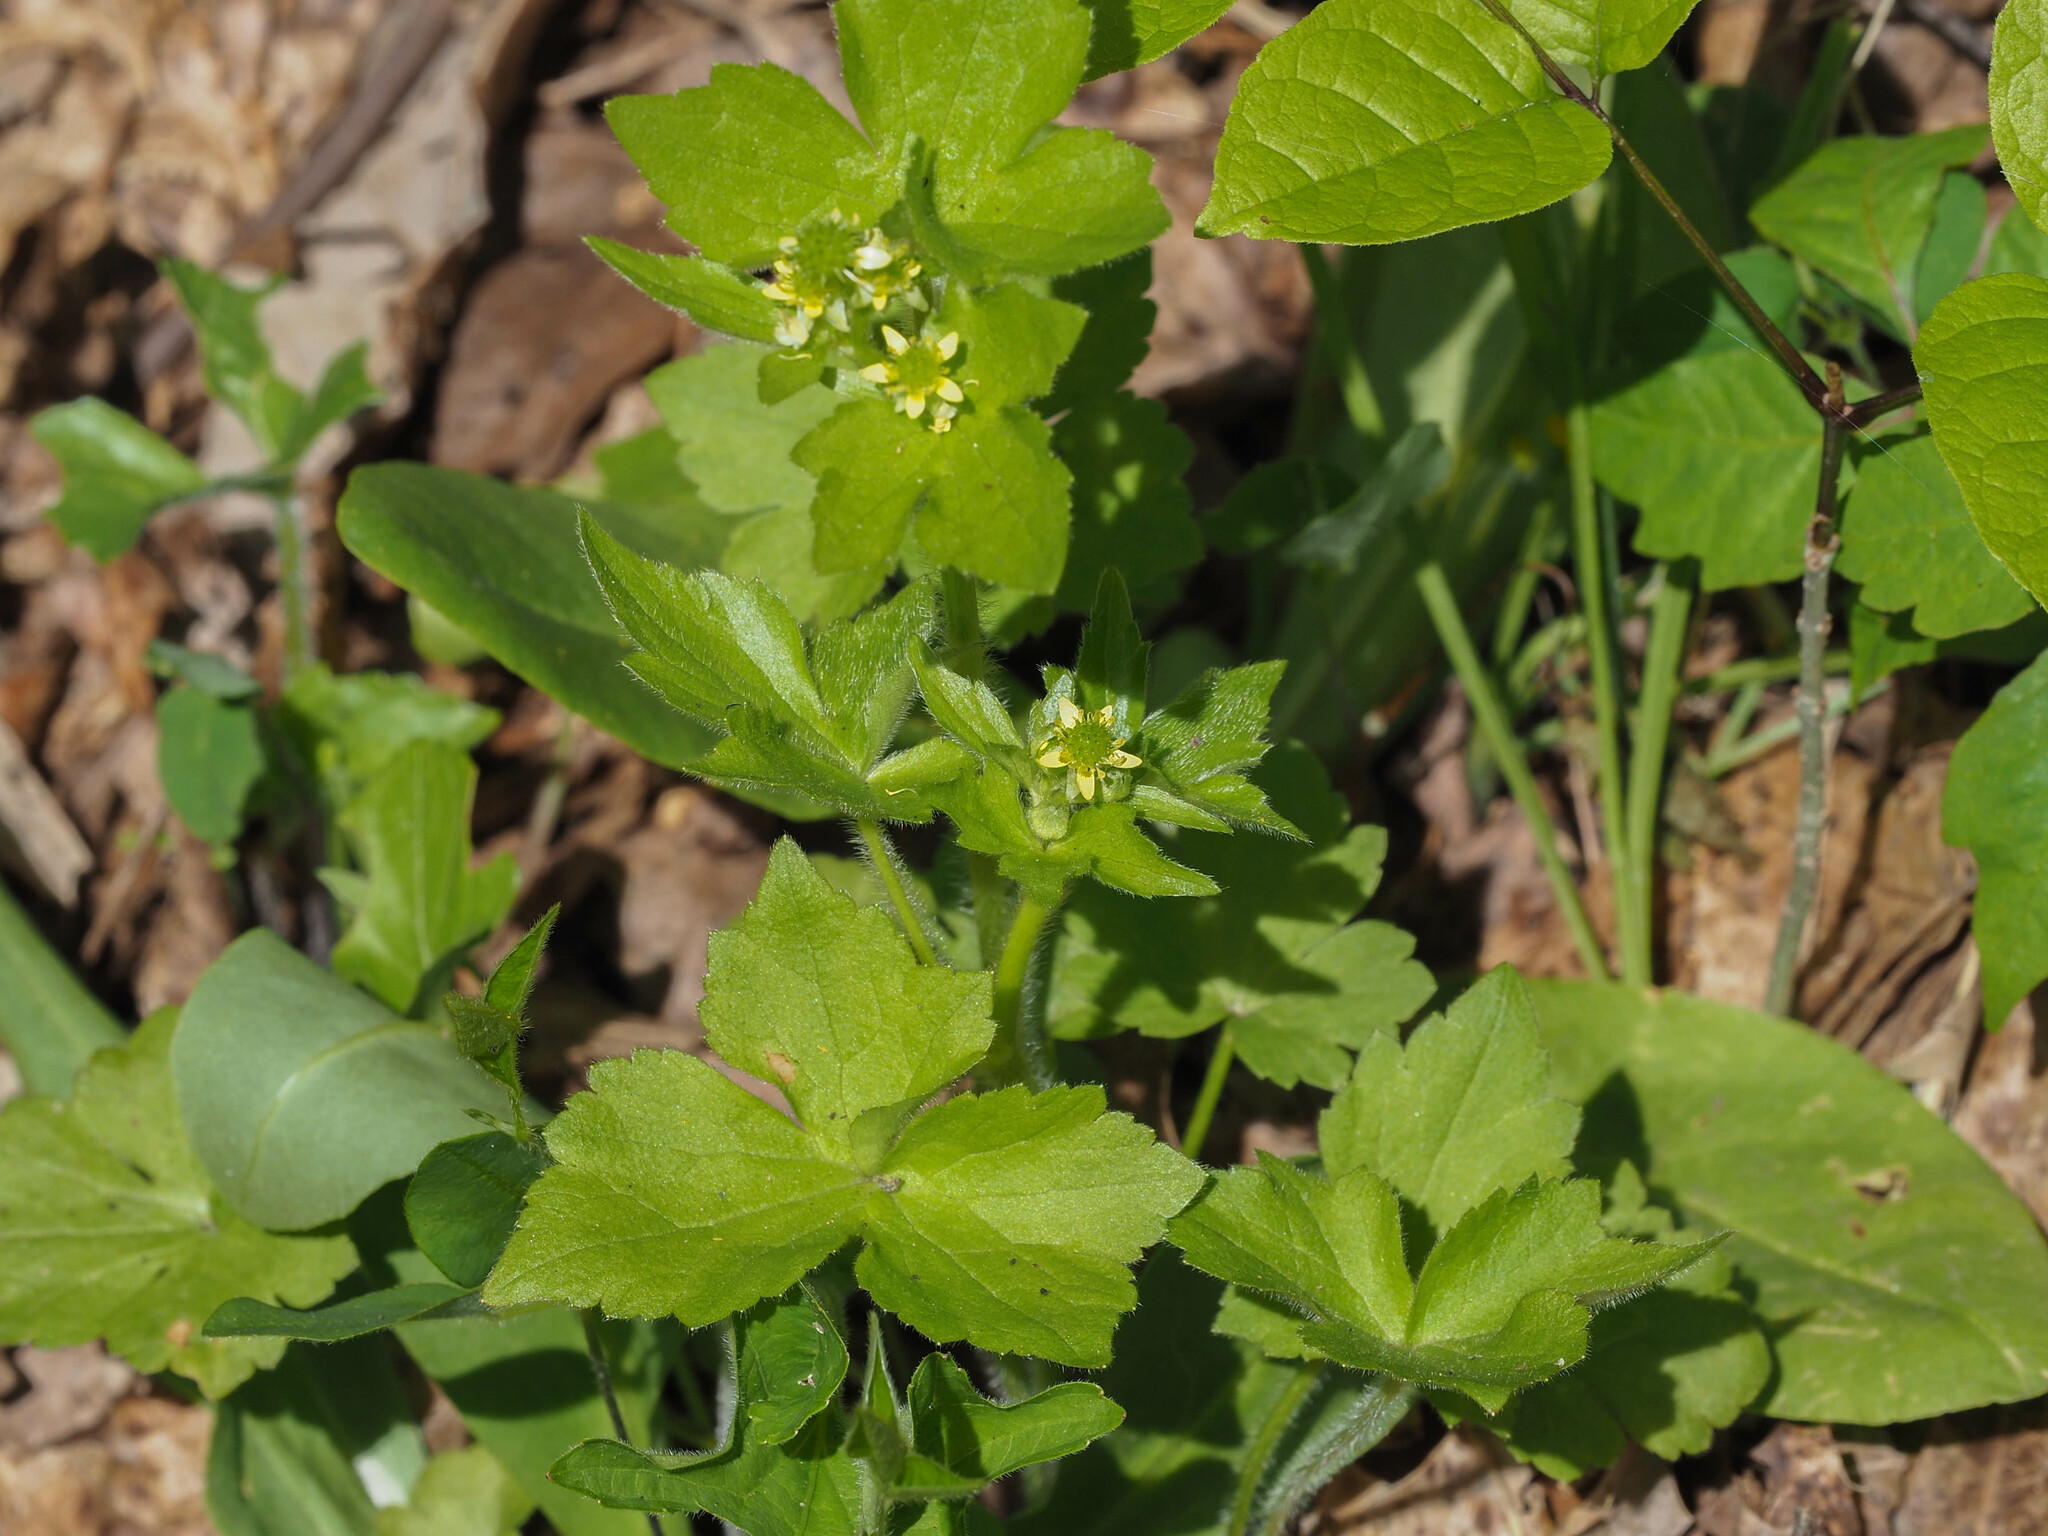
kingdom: Plantae
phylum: Tracheophyta
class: Magnoliopsida
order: Ranunculales
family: Ranunculaceae
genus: Ranunculus
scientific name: Ranunculus recurvatus
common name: Blisterwort
